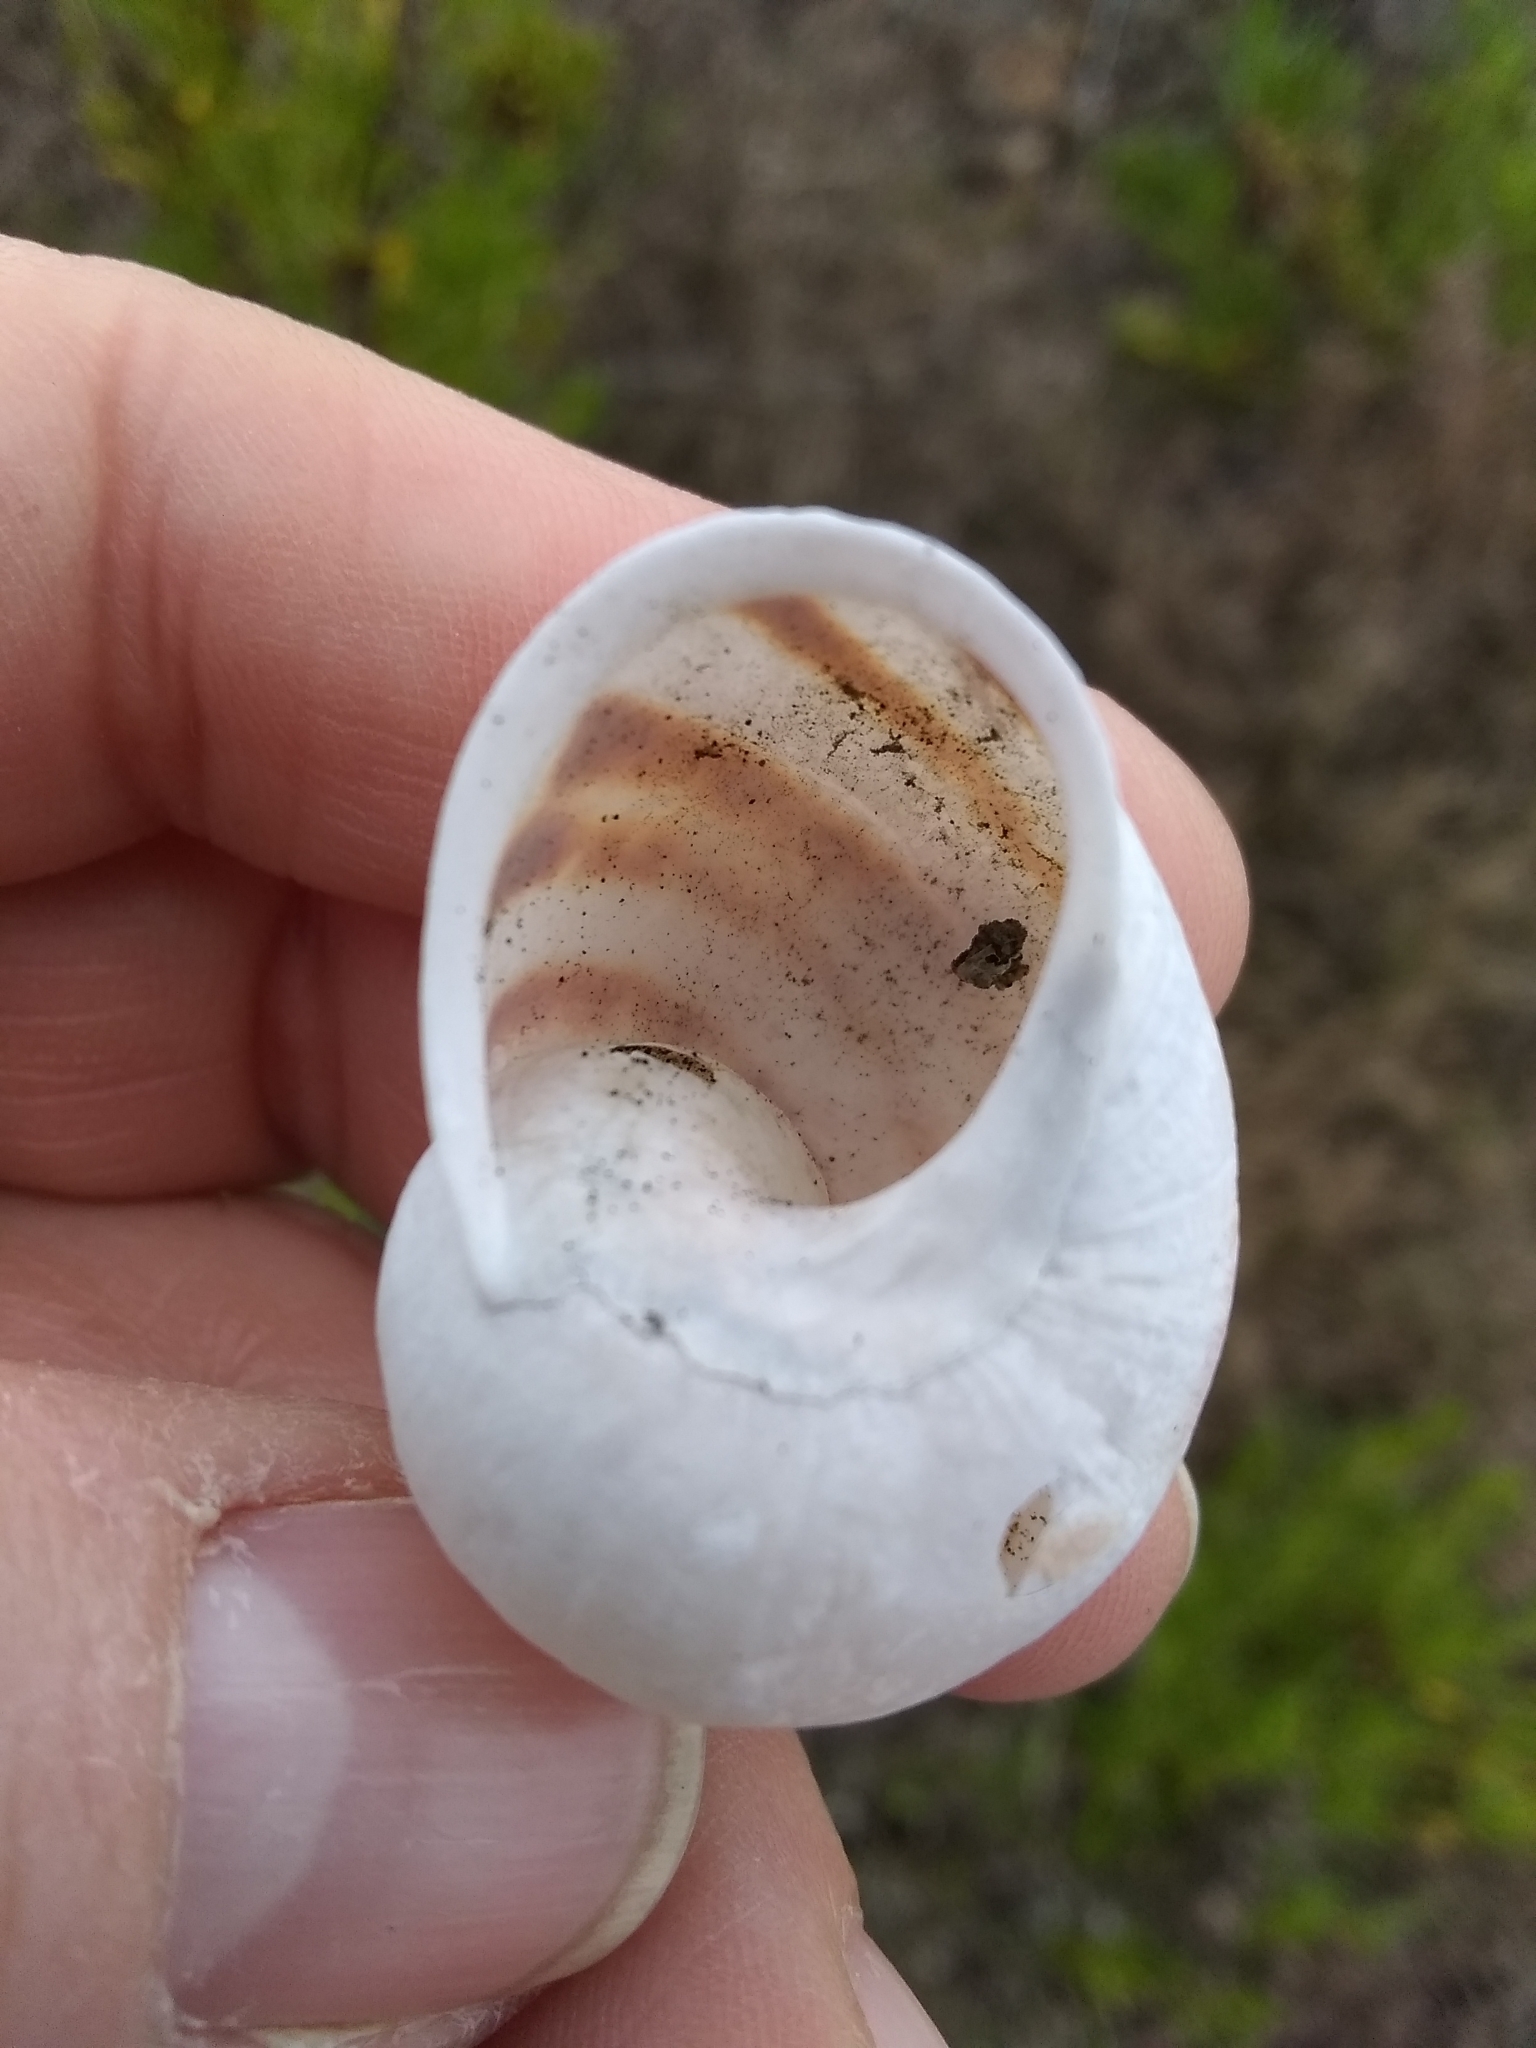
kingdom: Animalia
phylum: Mollusca
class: Gastropoda
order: Stylommatophora
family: Helicidae
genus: Cornu
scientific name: Cornu aspersum
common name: Brown garden snail
